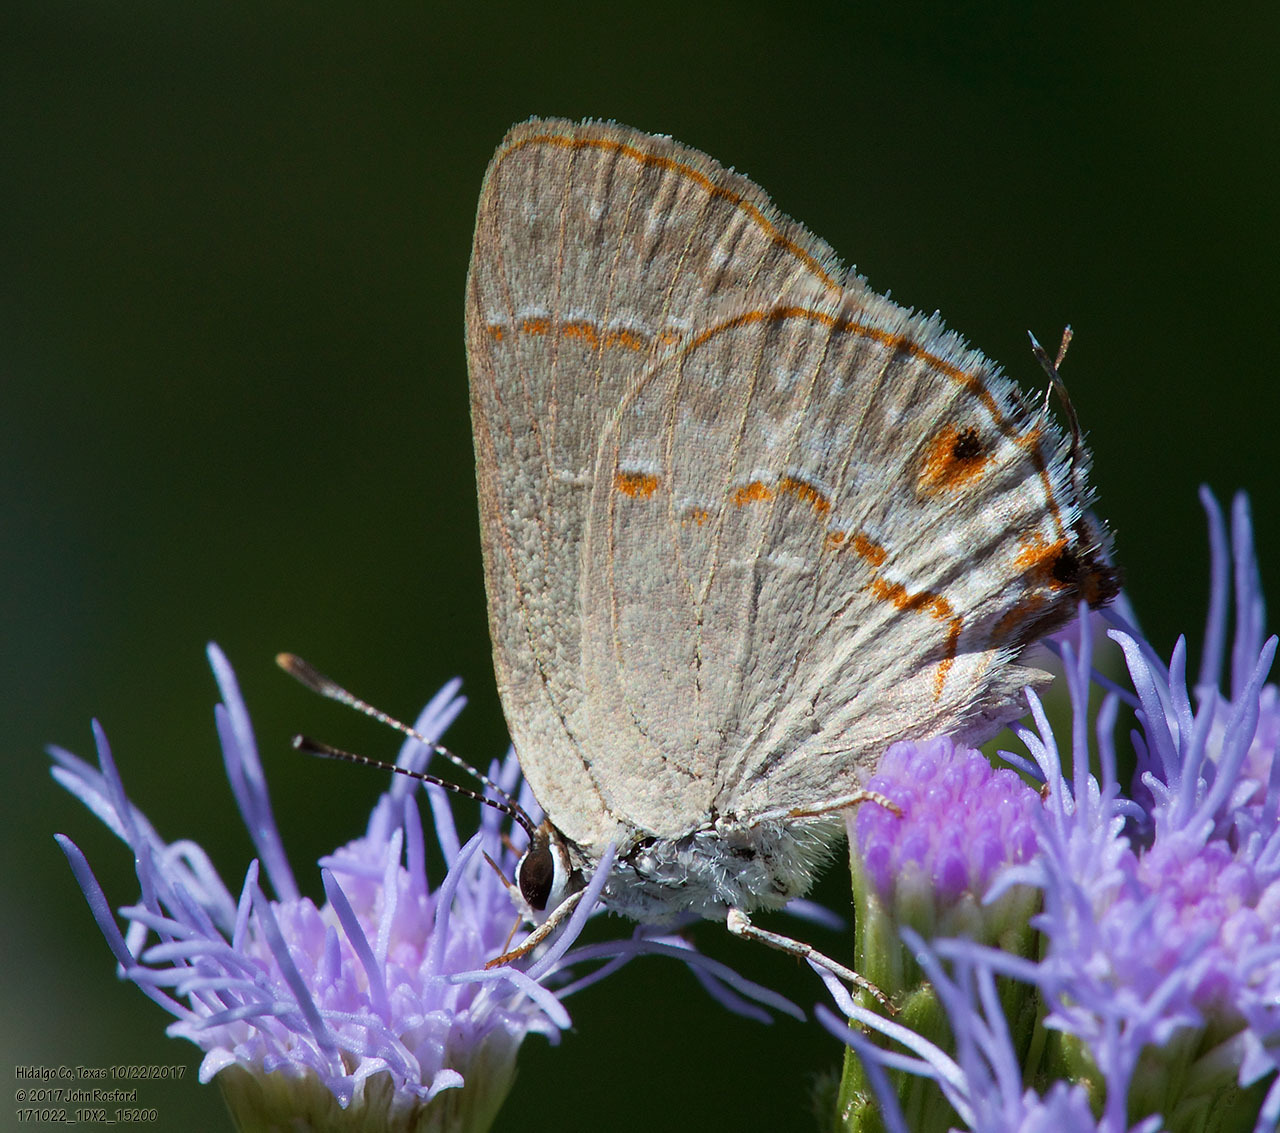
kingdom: Animalia
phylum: Arthropoda
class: Insecta
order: Lepidoptera
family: Lycaenidae
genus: Thecla
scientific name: Thecla rufofusca
